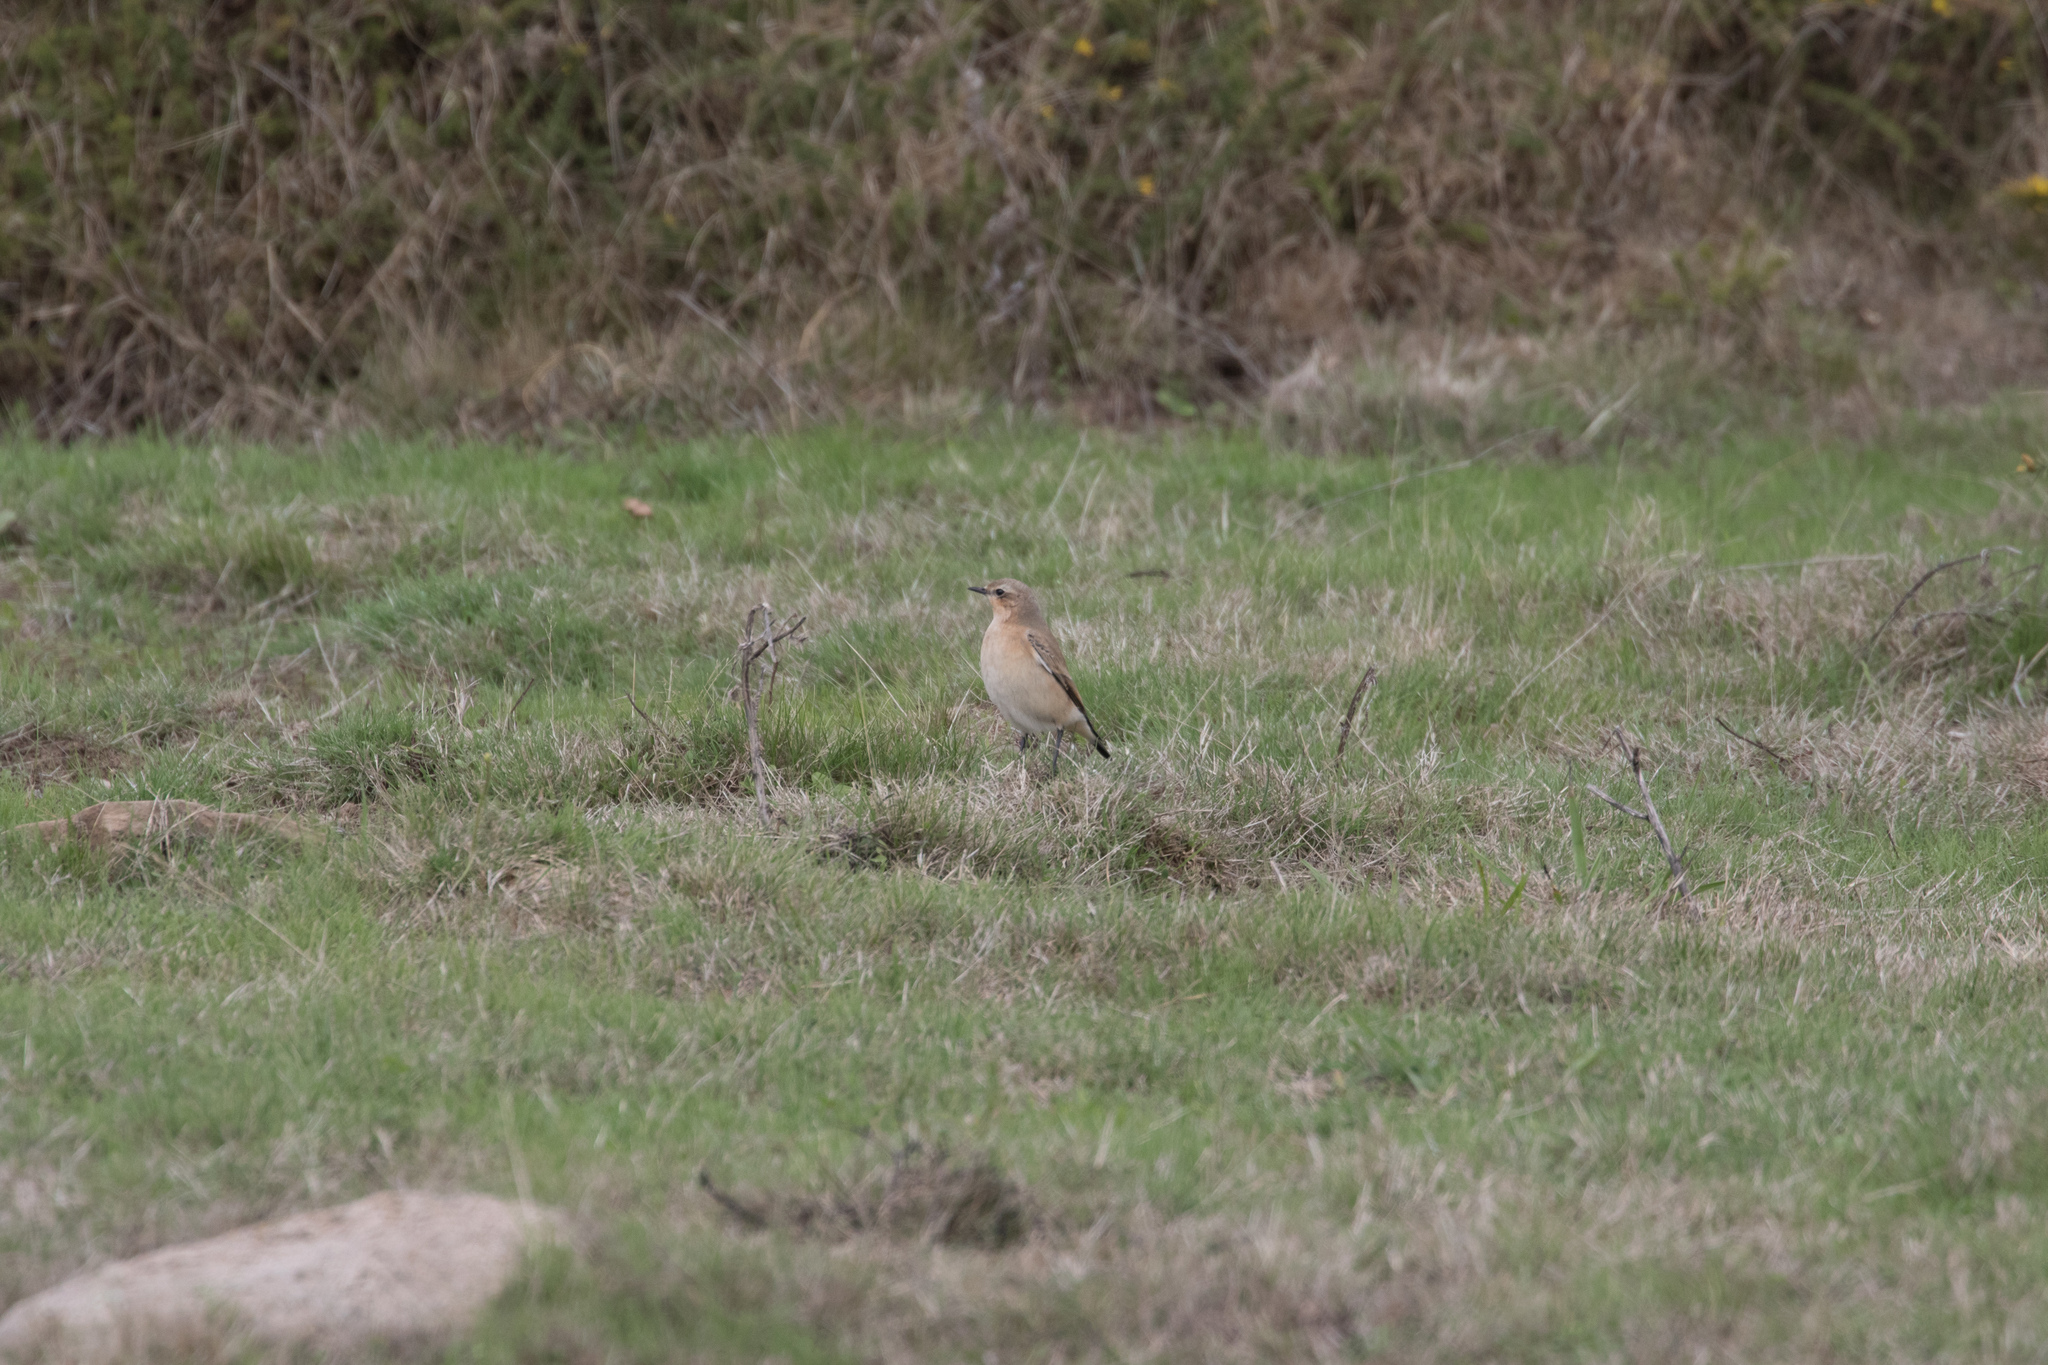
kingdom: Animalia
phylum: Chordata
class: Aves
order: Passeriformes
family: Muscicapidae
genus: Oenanthe
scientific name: Oenanthe oenanthe
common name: Northern wheatear
